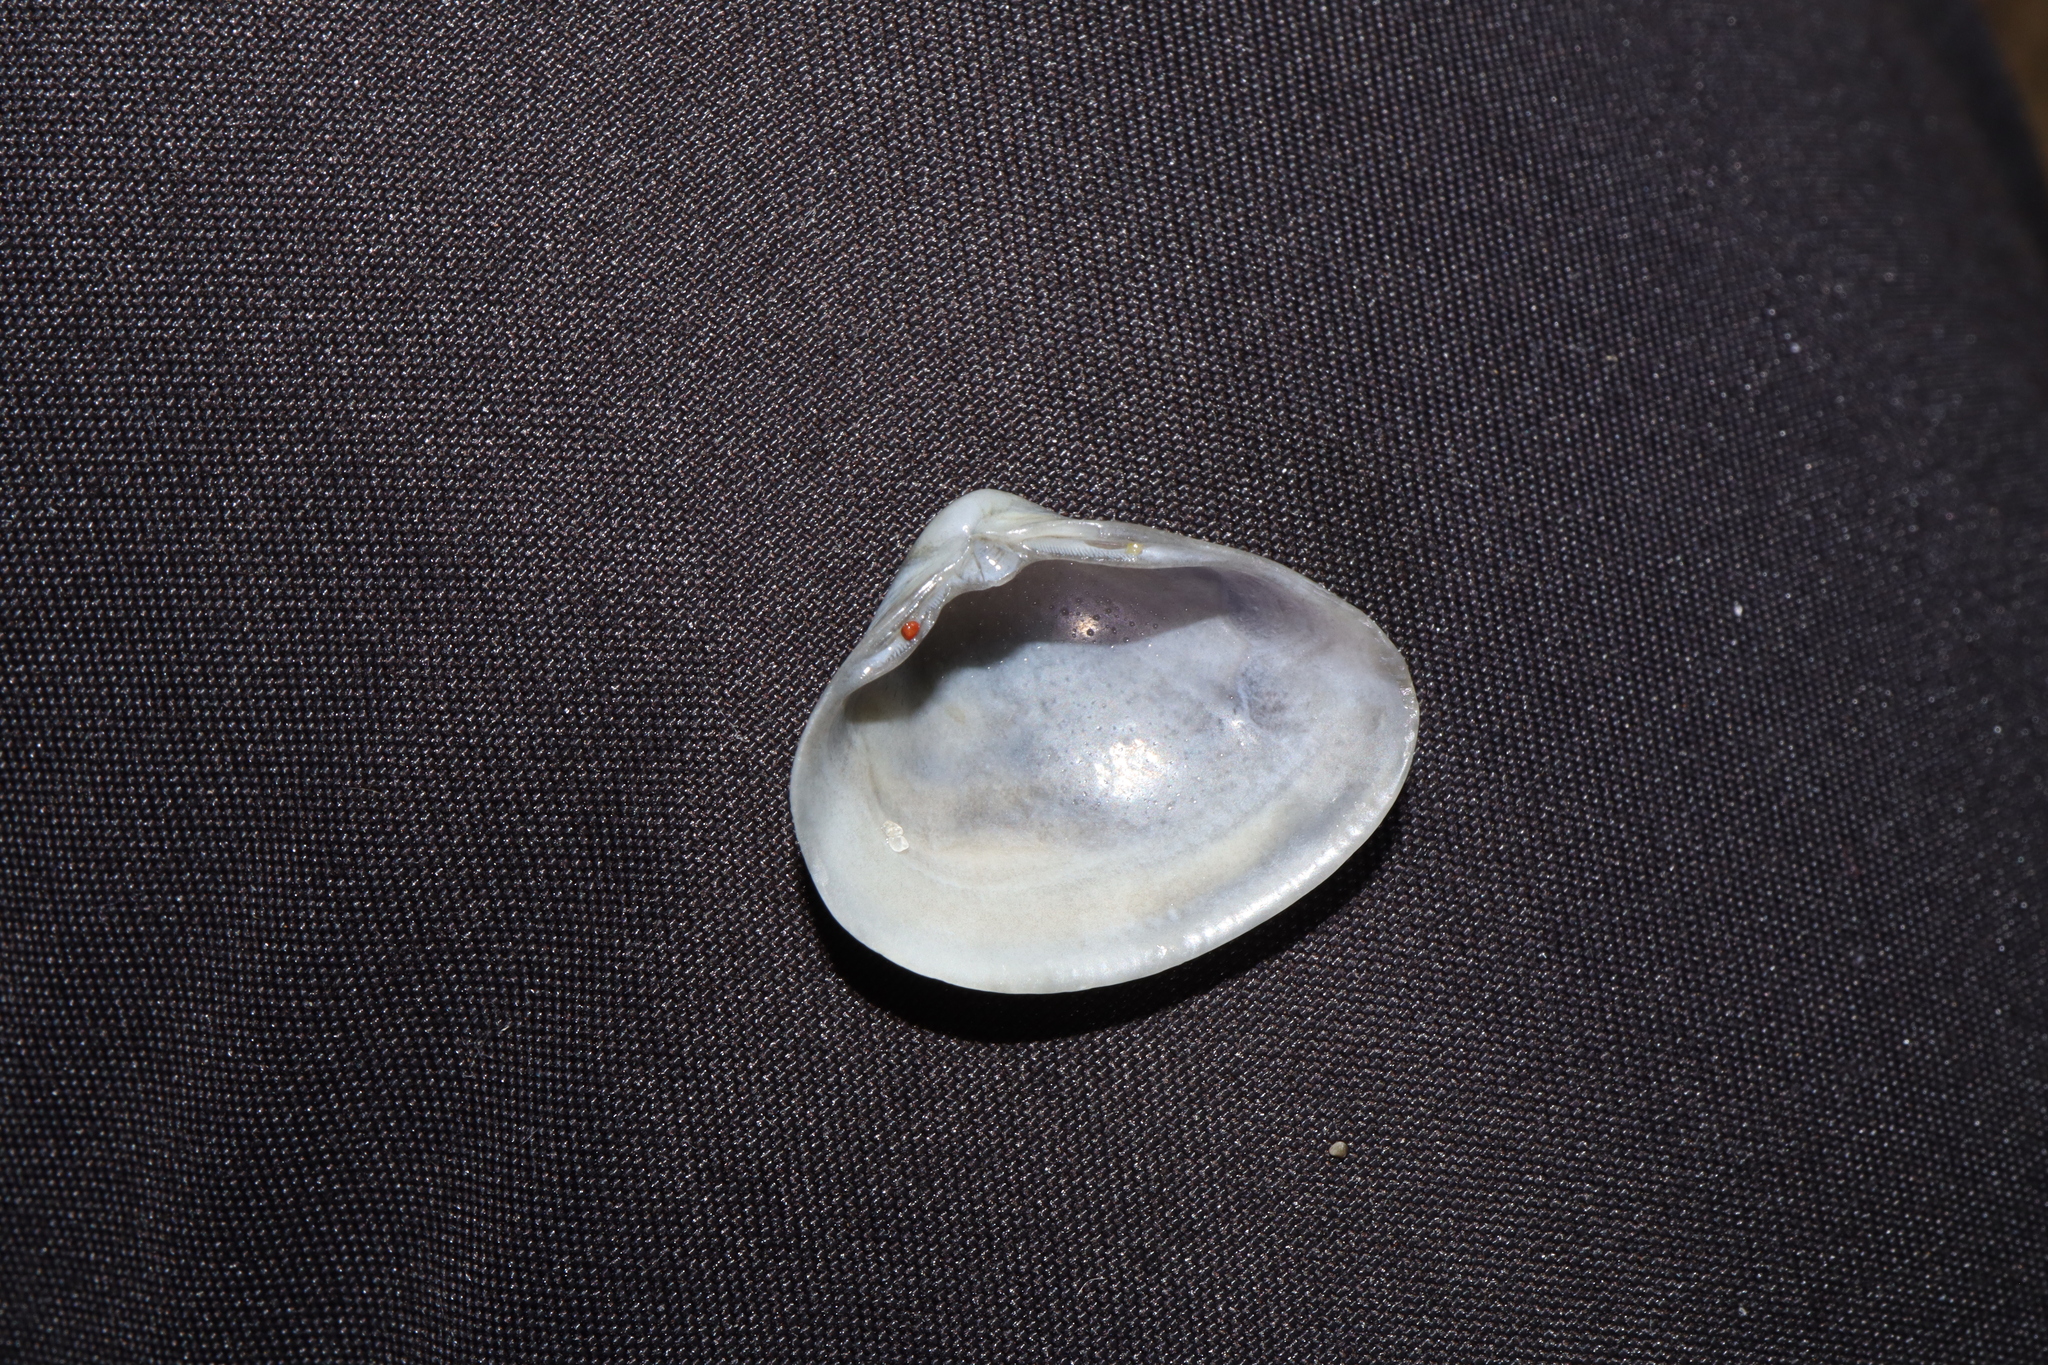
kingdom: Animalia
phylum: Mollusca
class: Bivalvia
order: Venerida
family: Mactridae
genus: Spisula
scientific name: Spisula trigonella
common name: Trigonal mactra
